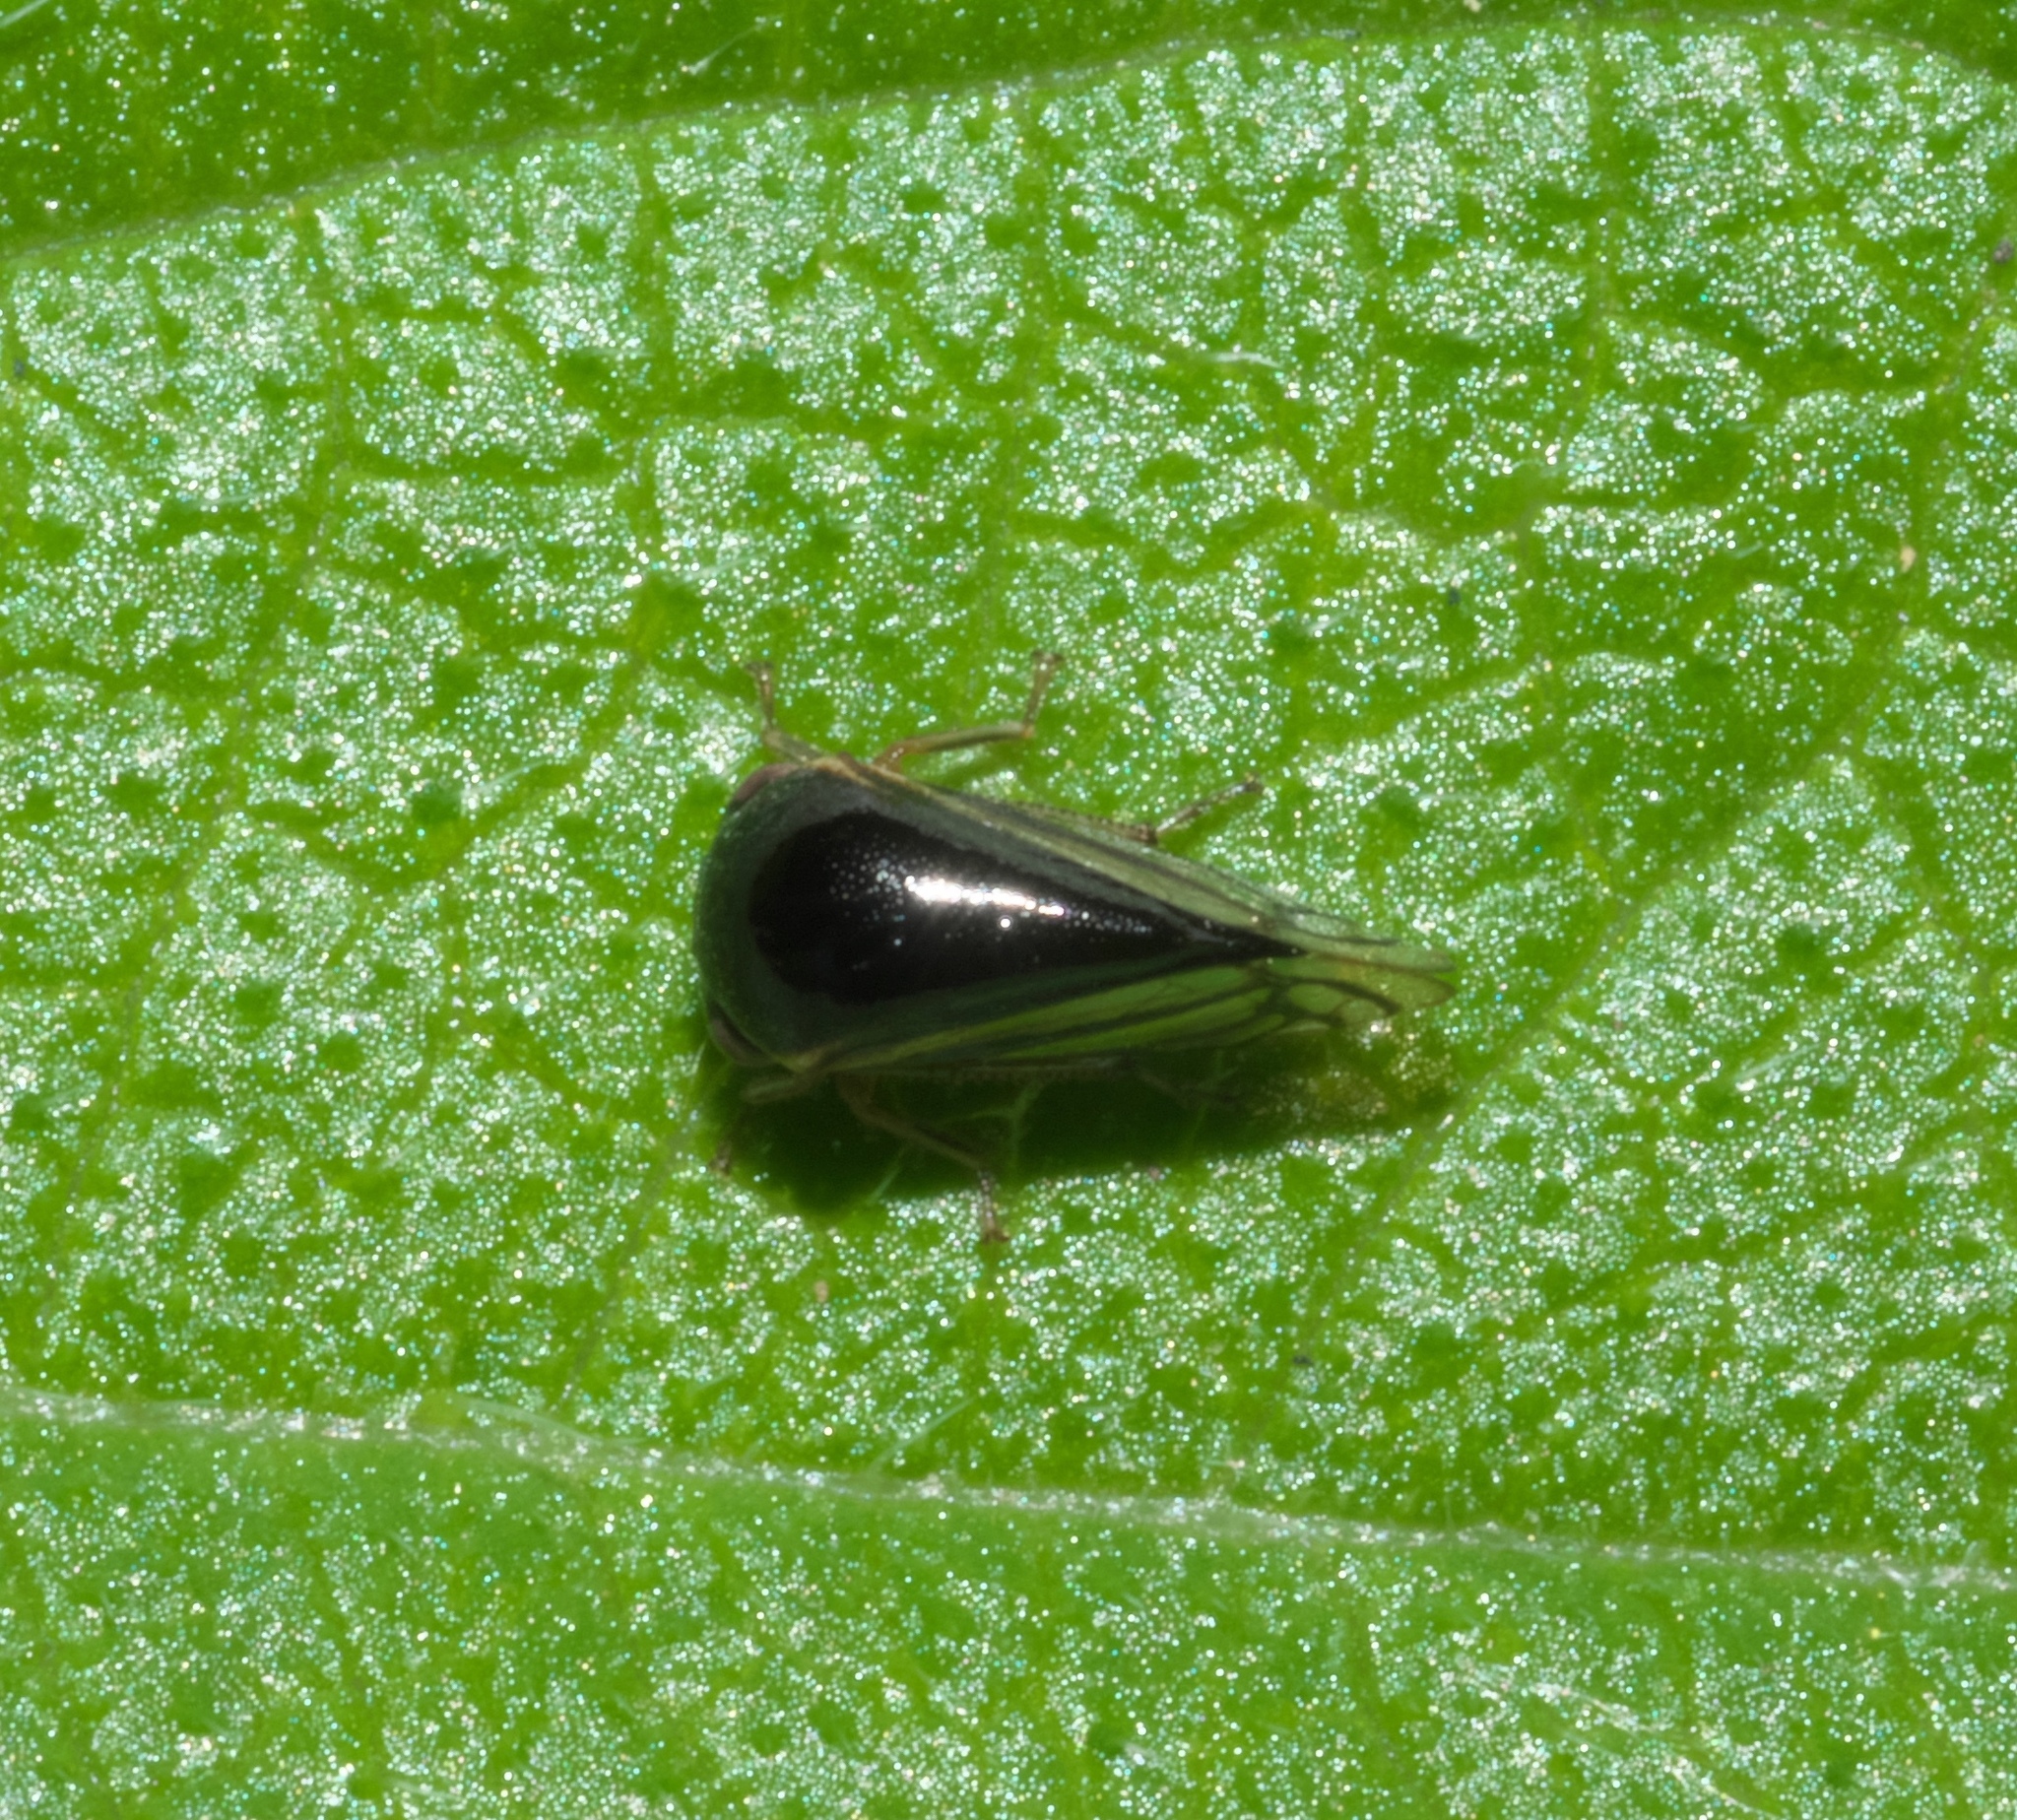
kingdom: Animalia
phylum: Arthropoda
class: Insecta
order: Hemiptera
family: Membracidae
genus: Acutalis
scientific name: Acutalis tartarea
